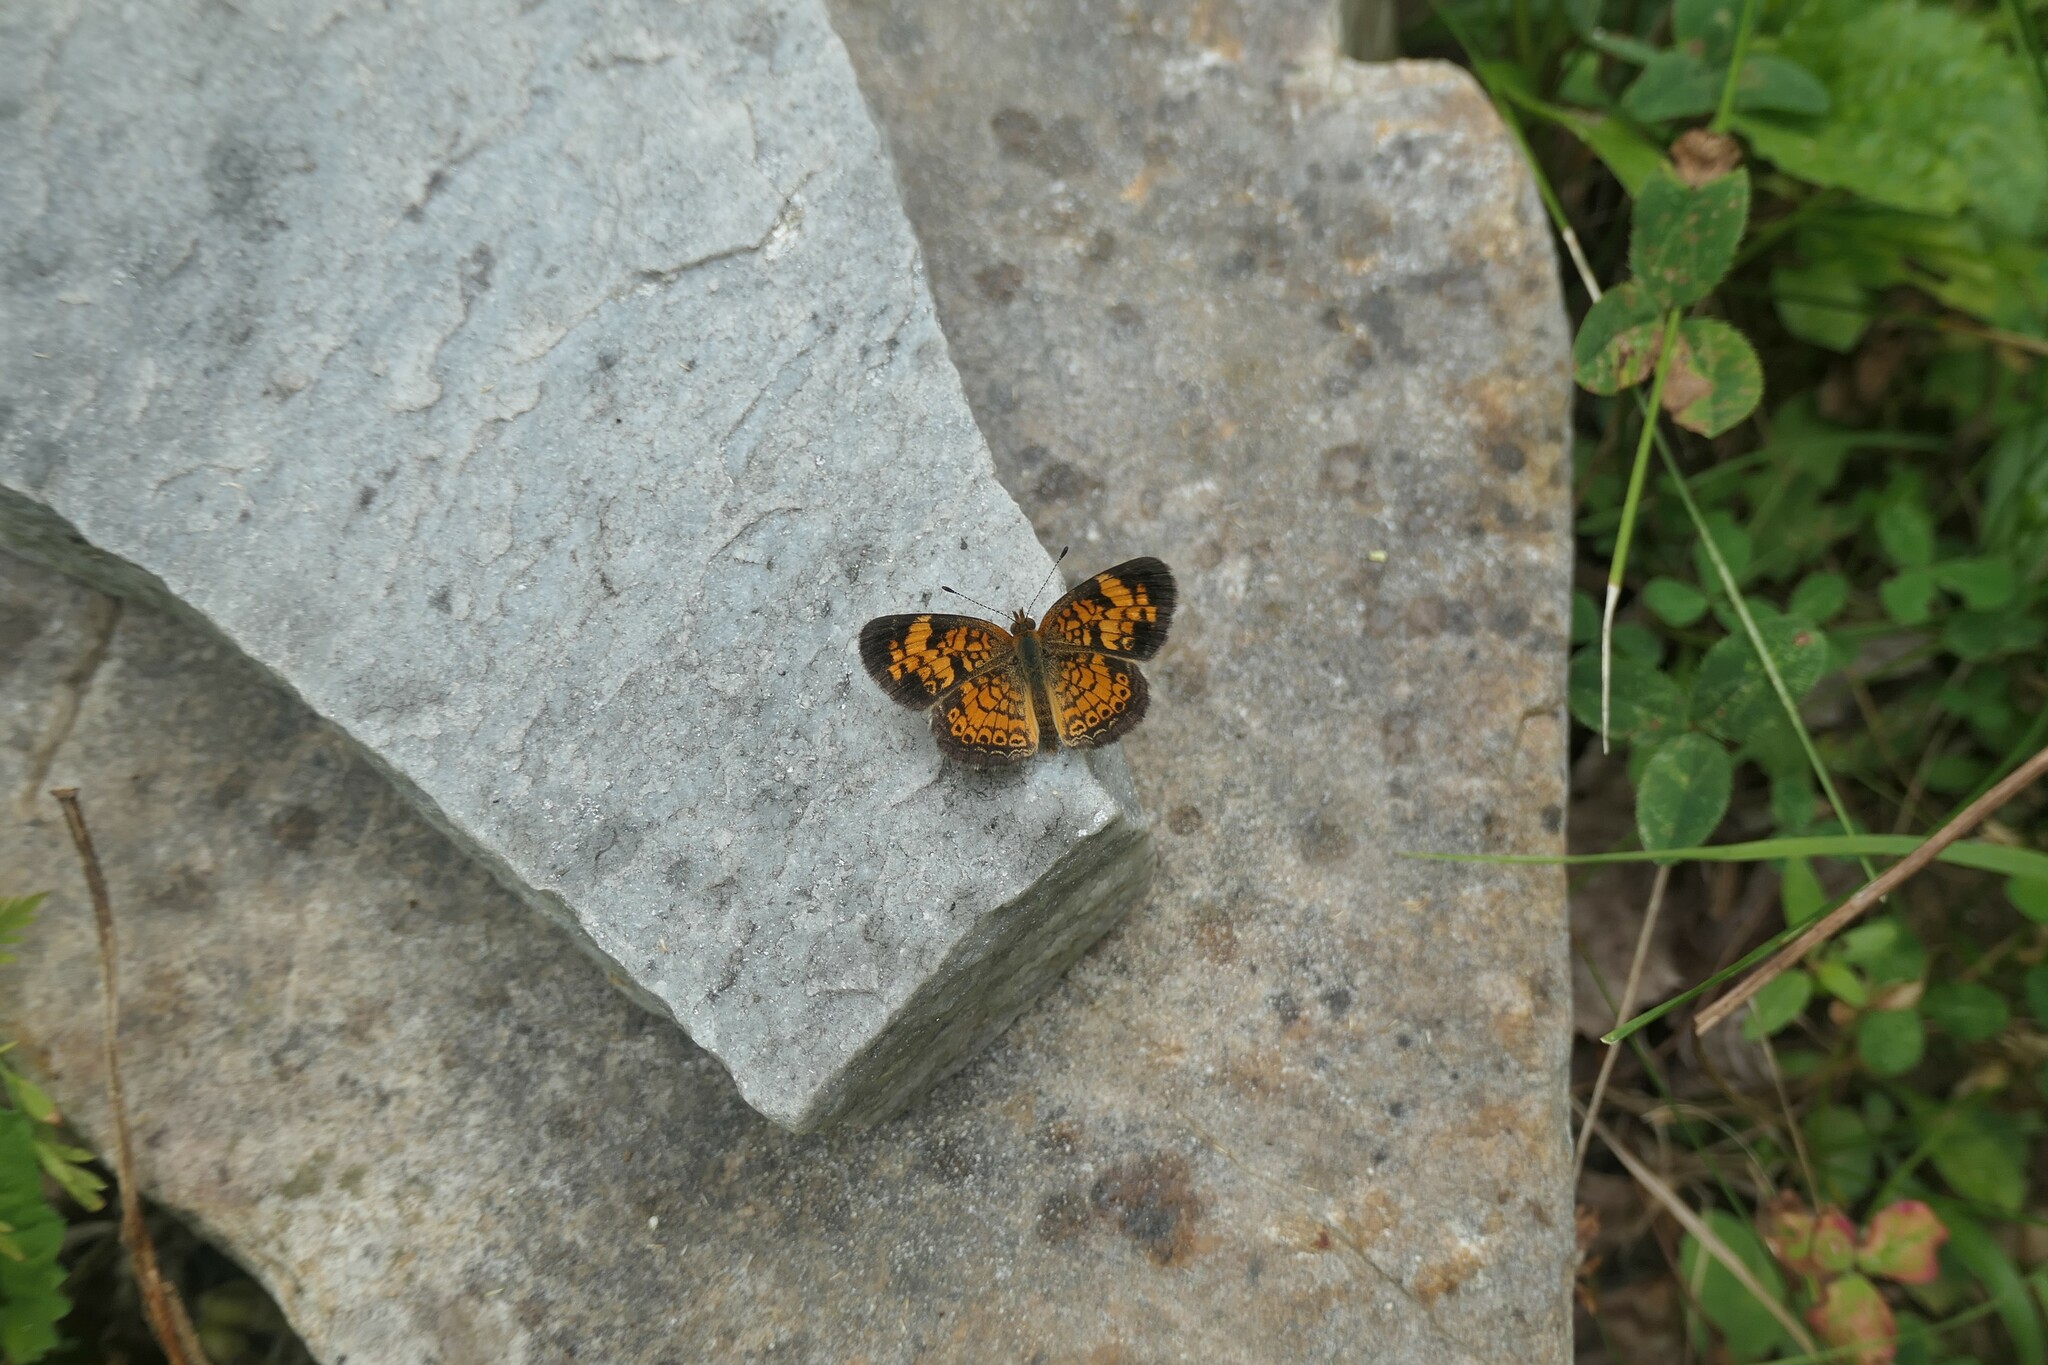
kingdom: Animalia
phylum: Arthropoda
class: Insecta
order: Lepidoptera
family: Nymphalidae
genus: Phyciodes
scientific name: Phyciodes tharos
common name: Pearl crescent
